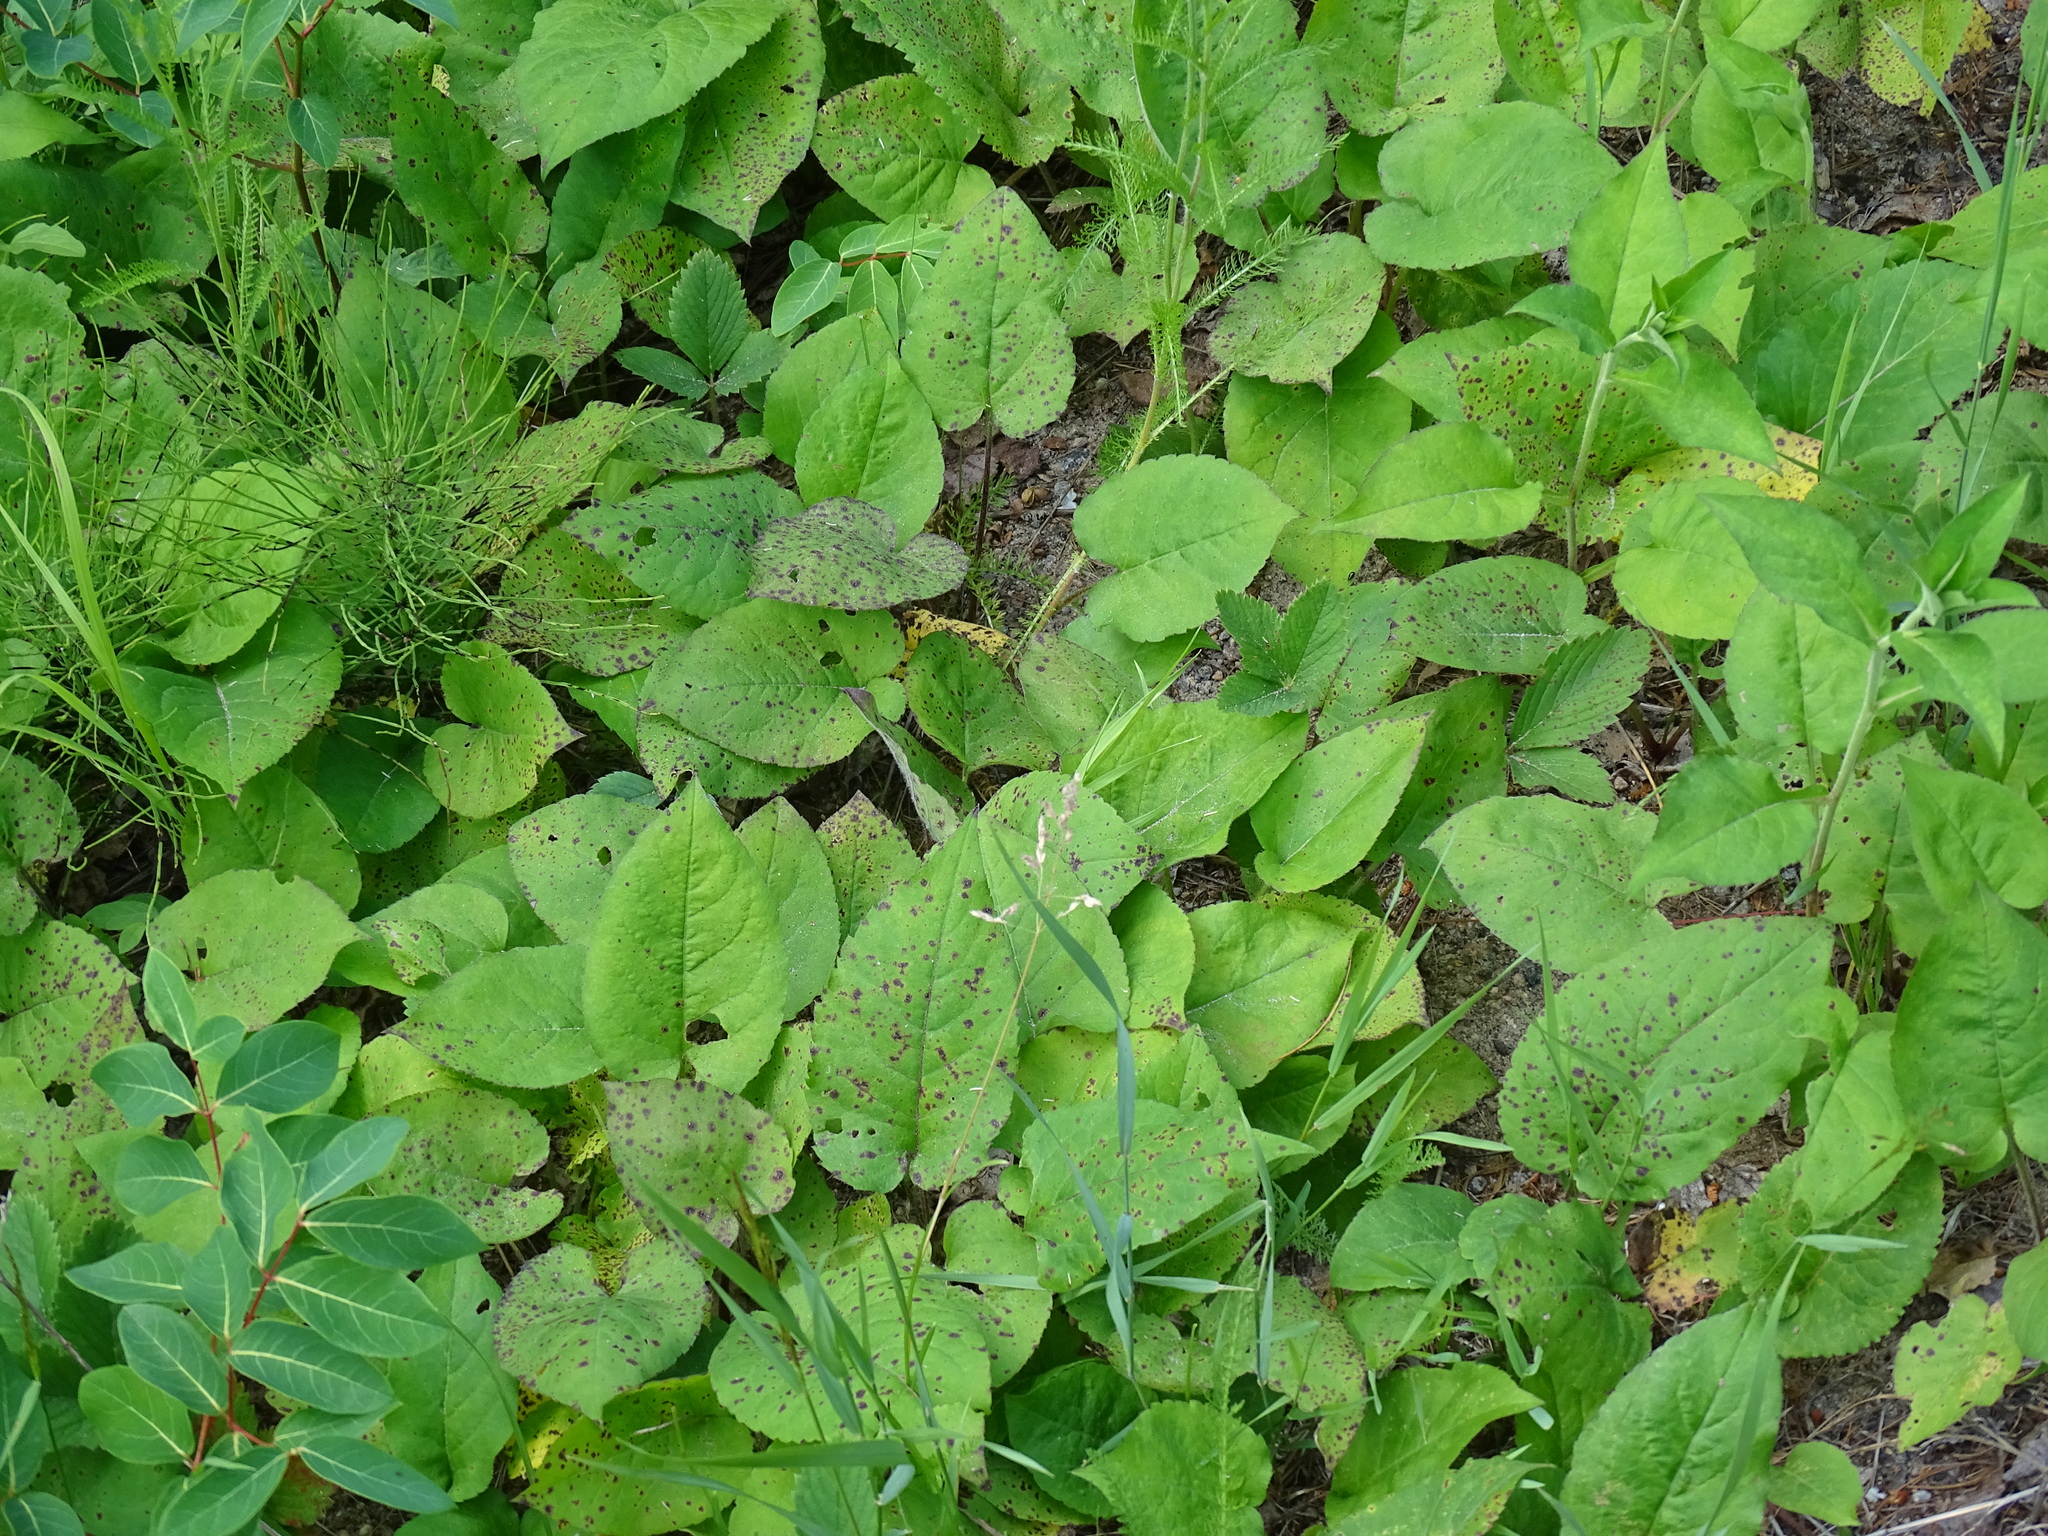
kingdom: Plantae
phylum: Tracheophyta
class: Magnoliopsida
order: Asterales
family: Asteraceae
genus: Eurybia
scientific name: Eurybia macrophylla
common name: Big-leaved aster
